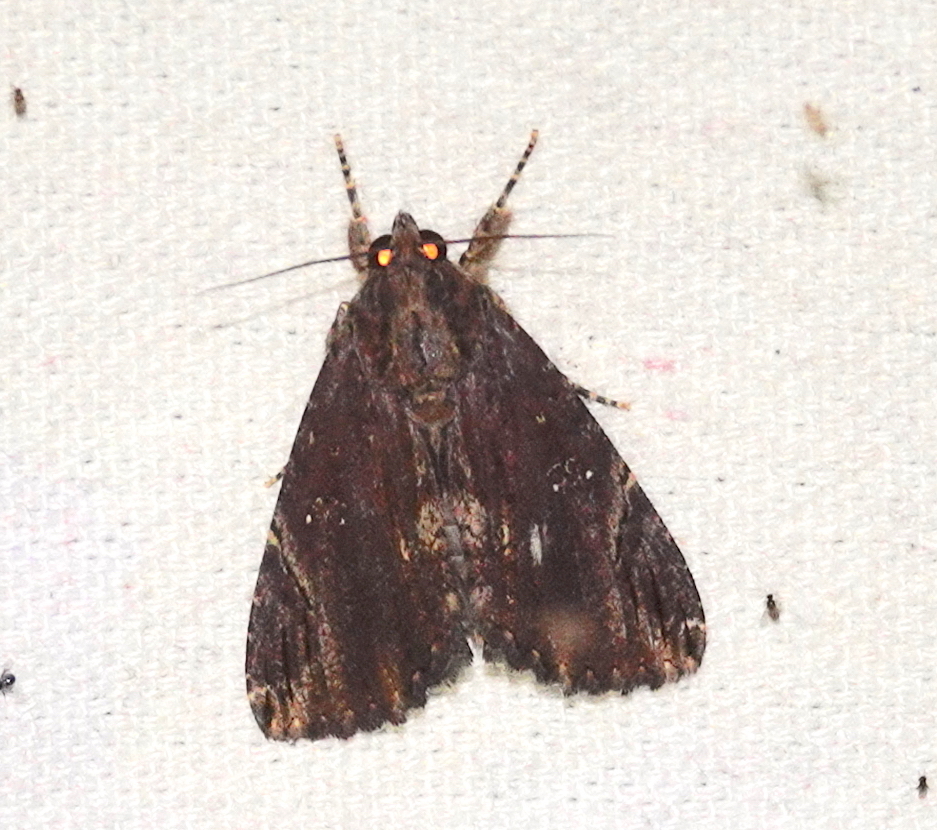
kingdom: Animalia
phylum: Arthropoda
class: Insecta
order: Lepidoptera
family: Erebidae
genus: Ercheia
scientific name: Ercheia cyllaria
